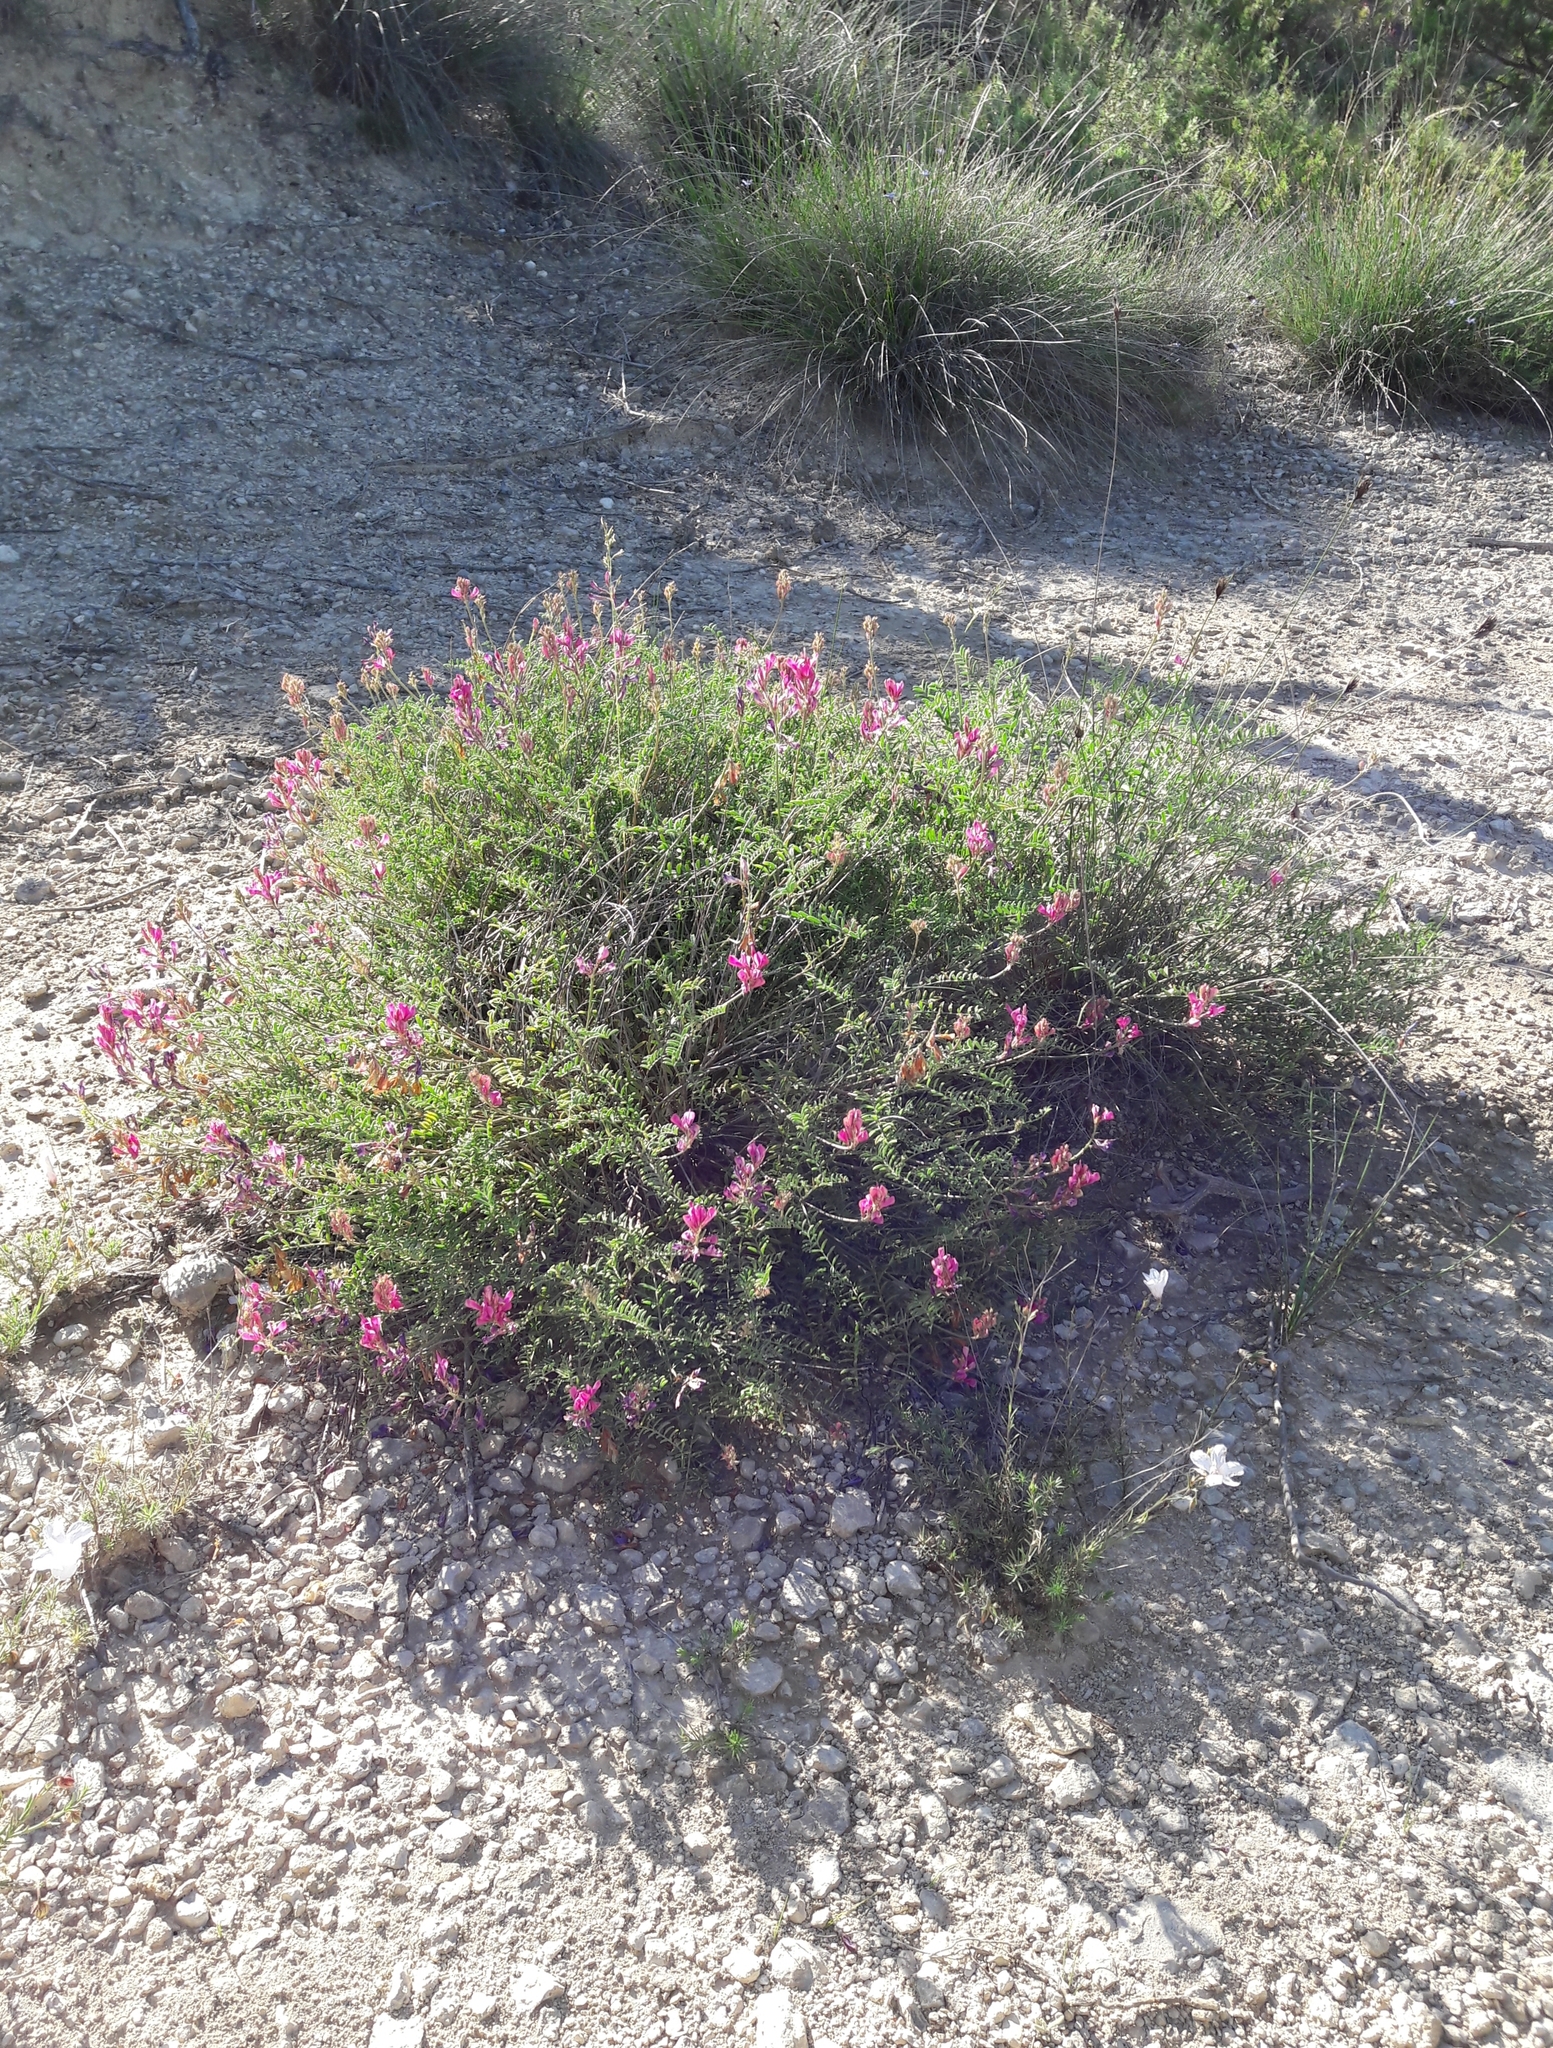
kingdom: Plantae
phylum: Tracheophyta
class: Magnoliopsida
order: Fabales
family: Fabaceae
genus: Hedysarum
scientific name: Hedysarum boveanum
